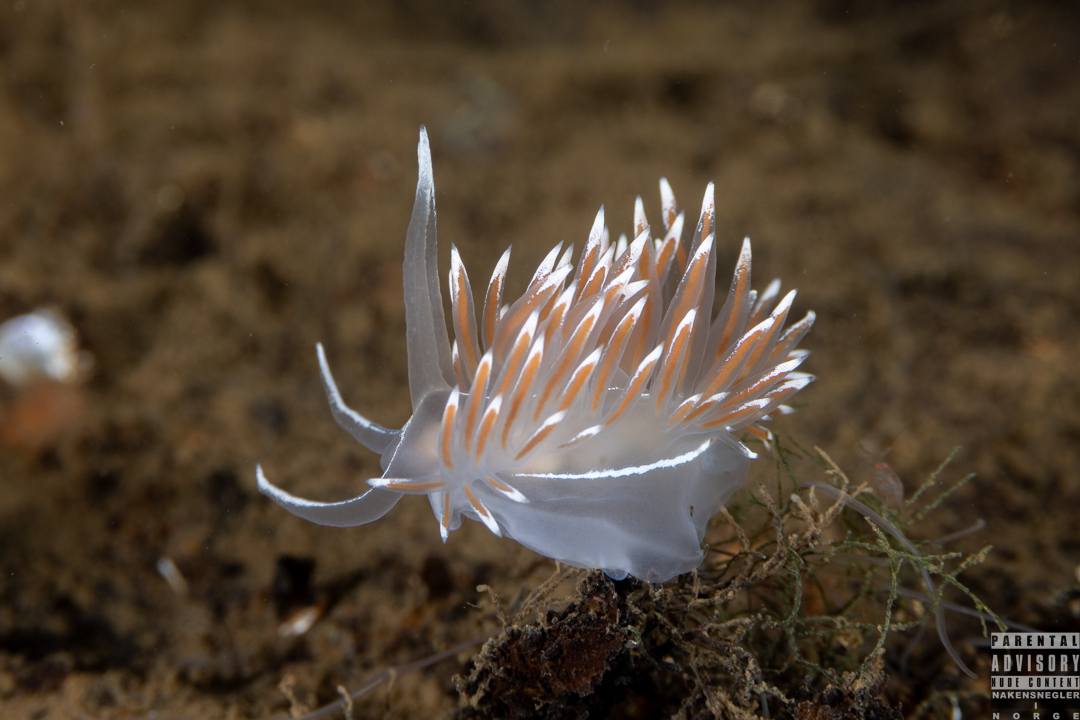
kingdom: Animalia
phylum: Mollusca
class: Gastropoda
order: Nudibranchia
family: Coryphellidae
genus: Coryphella
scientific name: Coryphella lineata
